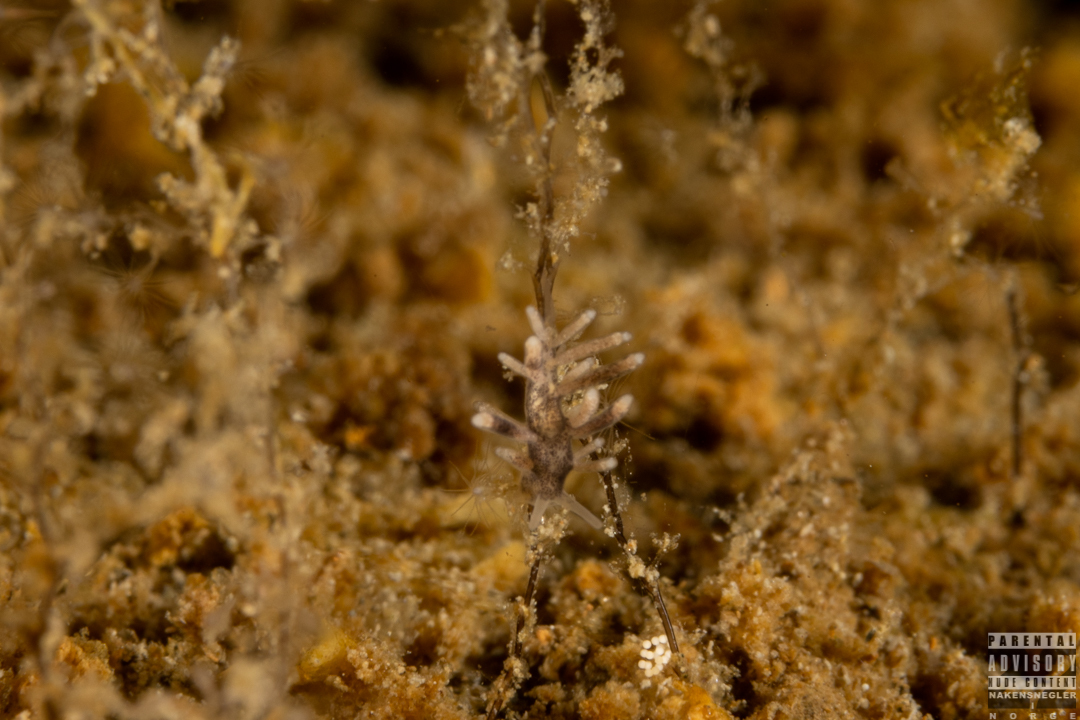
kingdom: Animalia
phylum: Mollusca
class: Gastropoda
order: Nudibranchia
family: Trinchesiidae
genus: Tenellia
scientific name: Tenellia adspersa
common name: Lagoon sea slug
